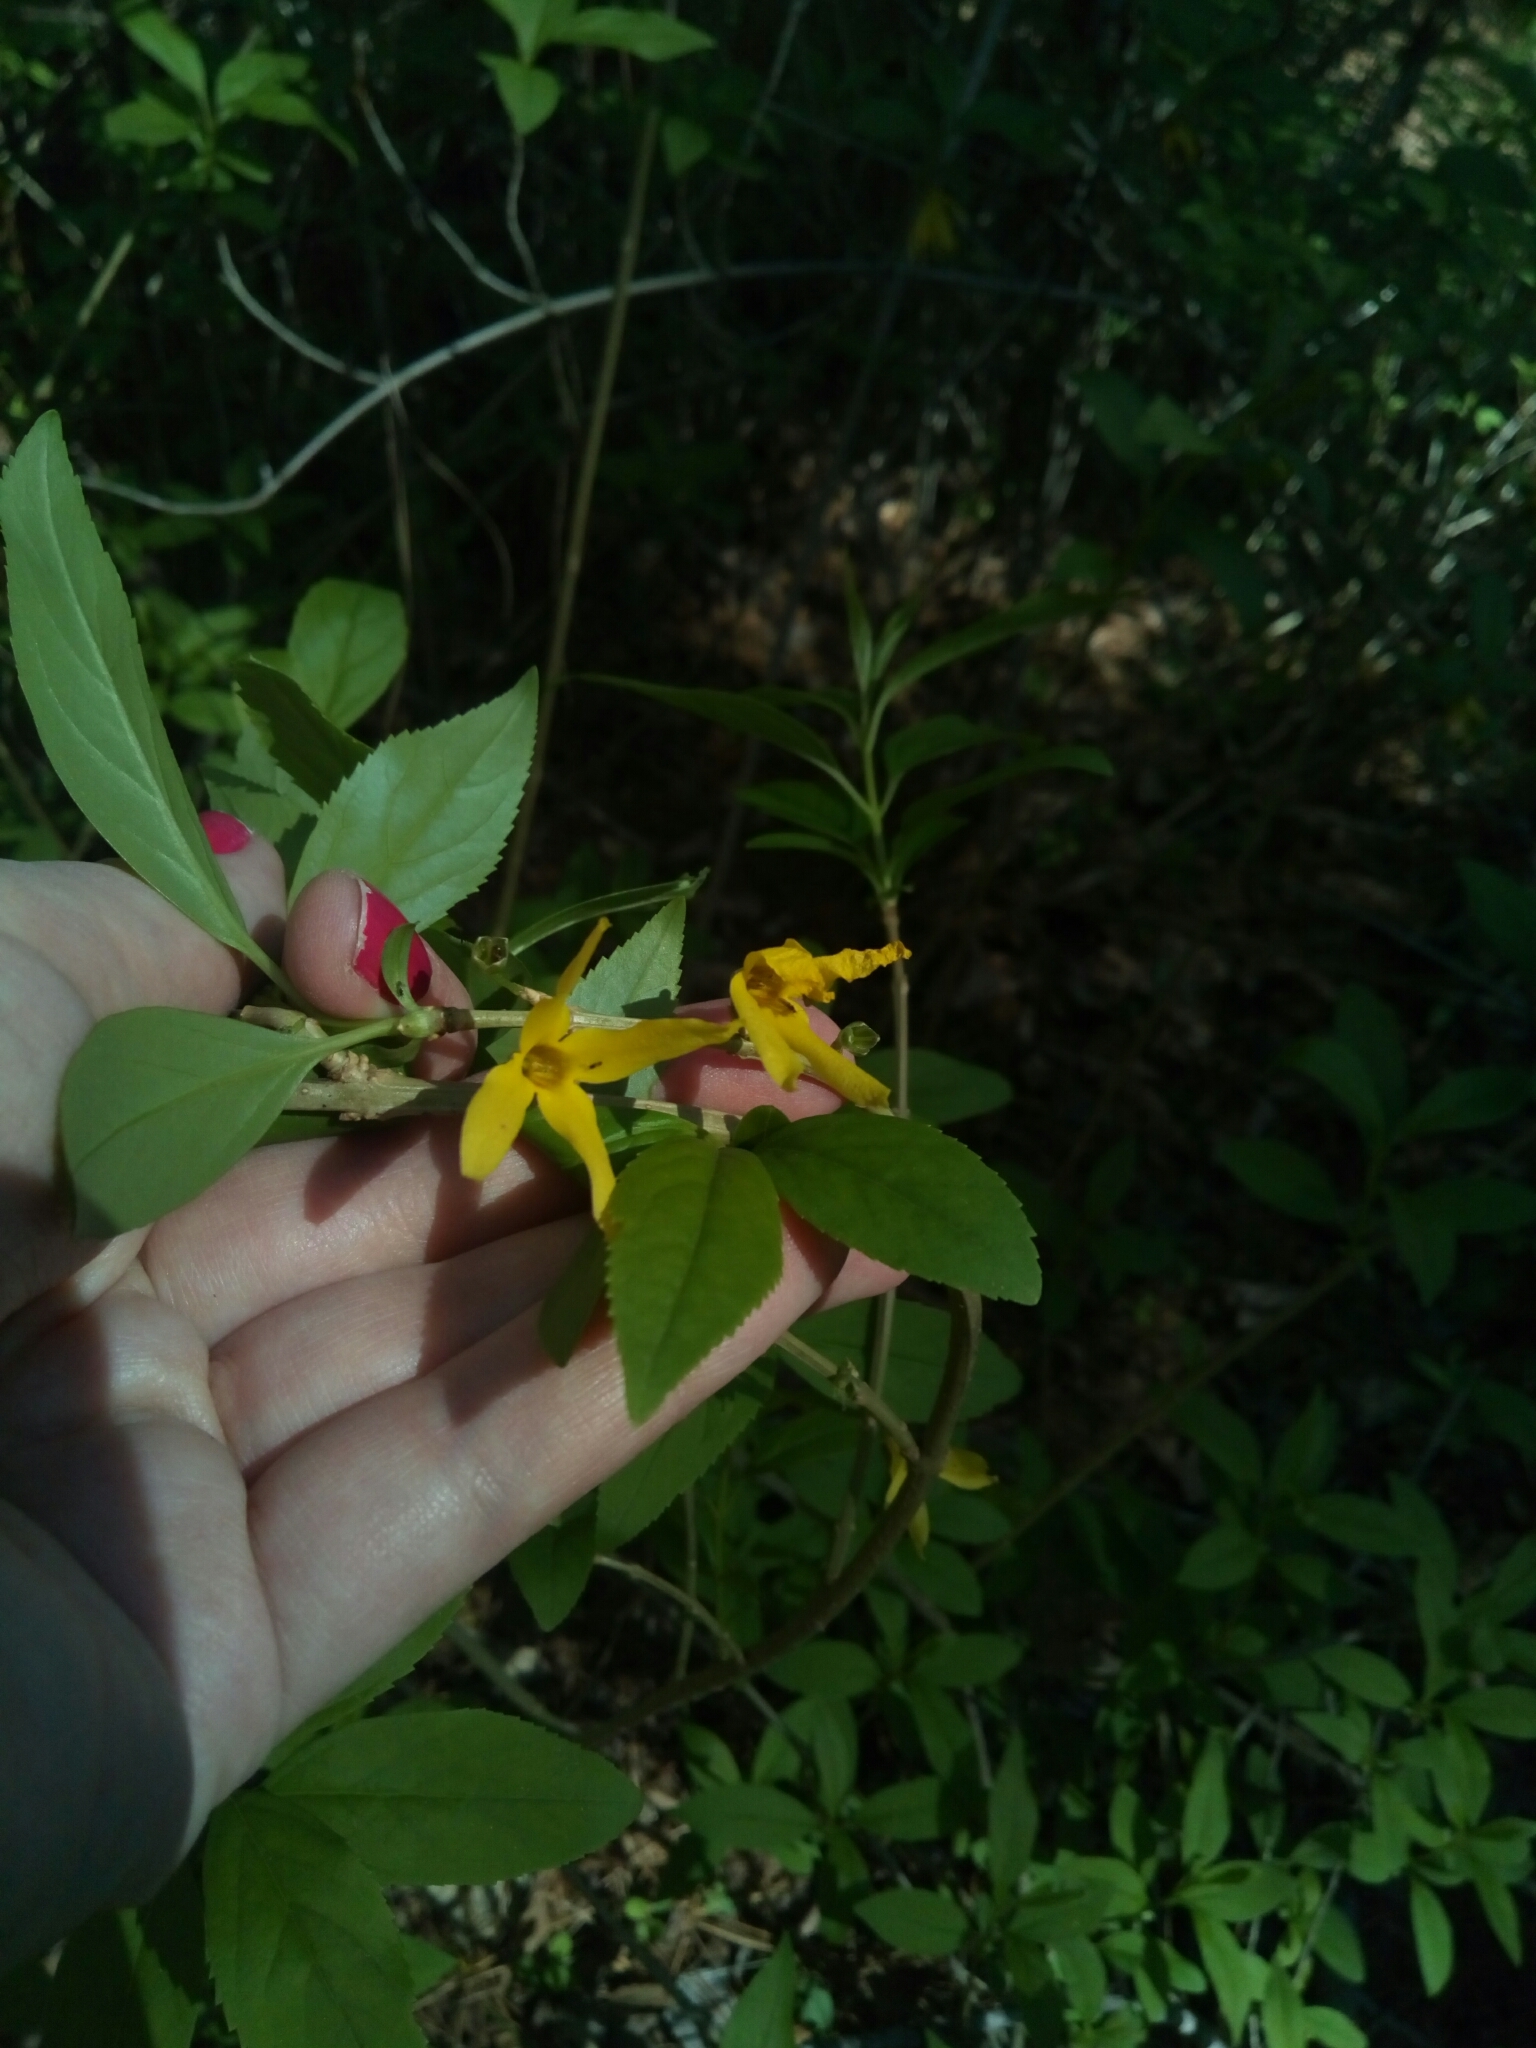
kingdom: Plantae
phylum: Tracheophyta
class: Magnoliopsida
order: Lamiales
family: Oleaceae
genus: Forsythia
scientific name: Forsythia intermedia
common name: Forsythia
